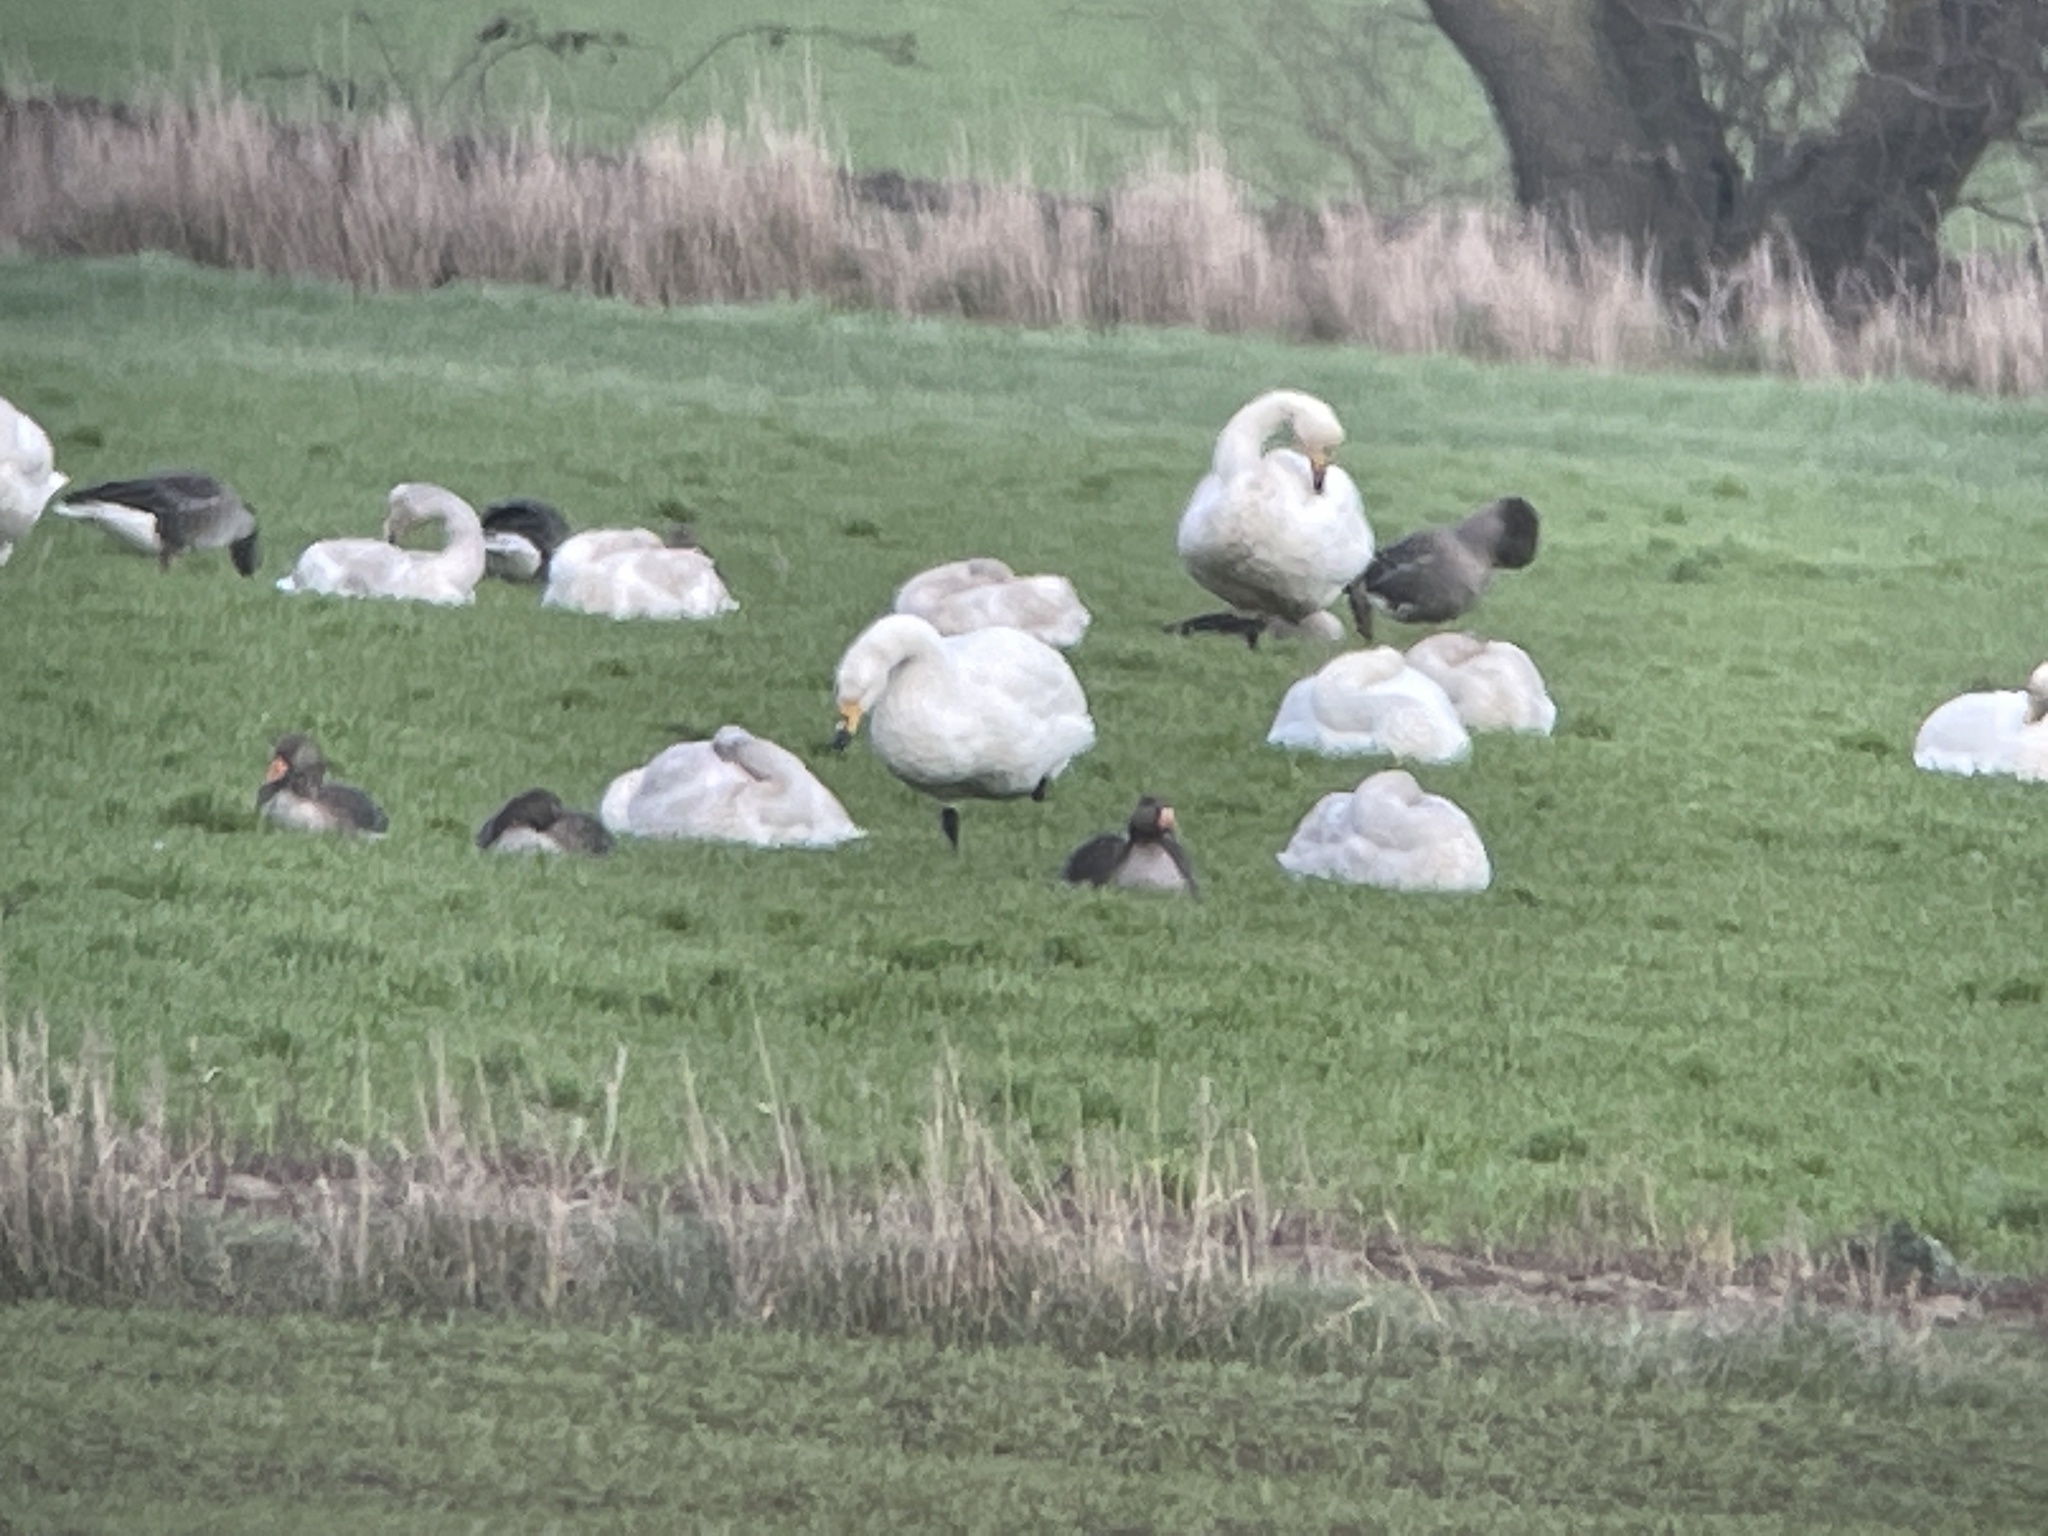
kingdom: Animalia
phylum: Chordata
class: Aves
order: Anseriformes
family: Anatidae
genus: Cygnus
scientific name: Cygnus cygnus
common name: Whooper swan
